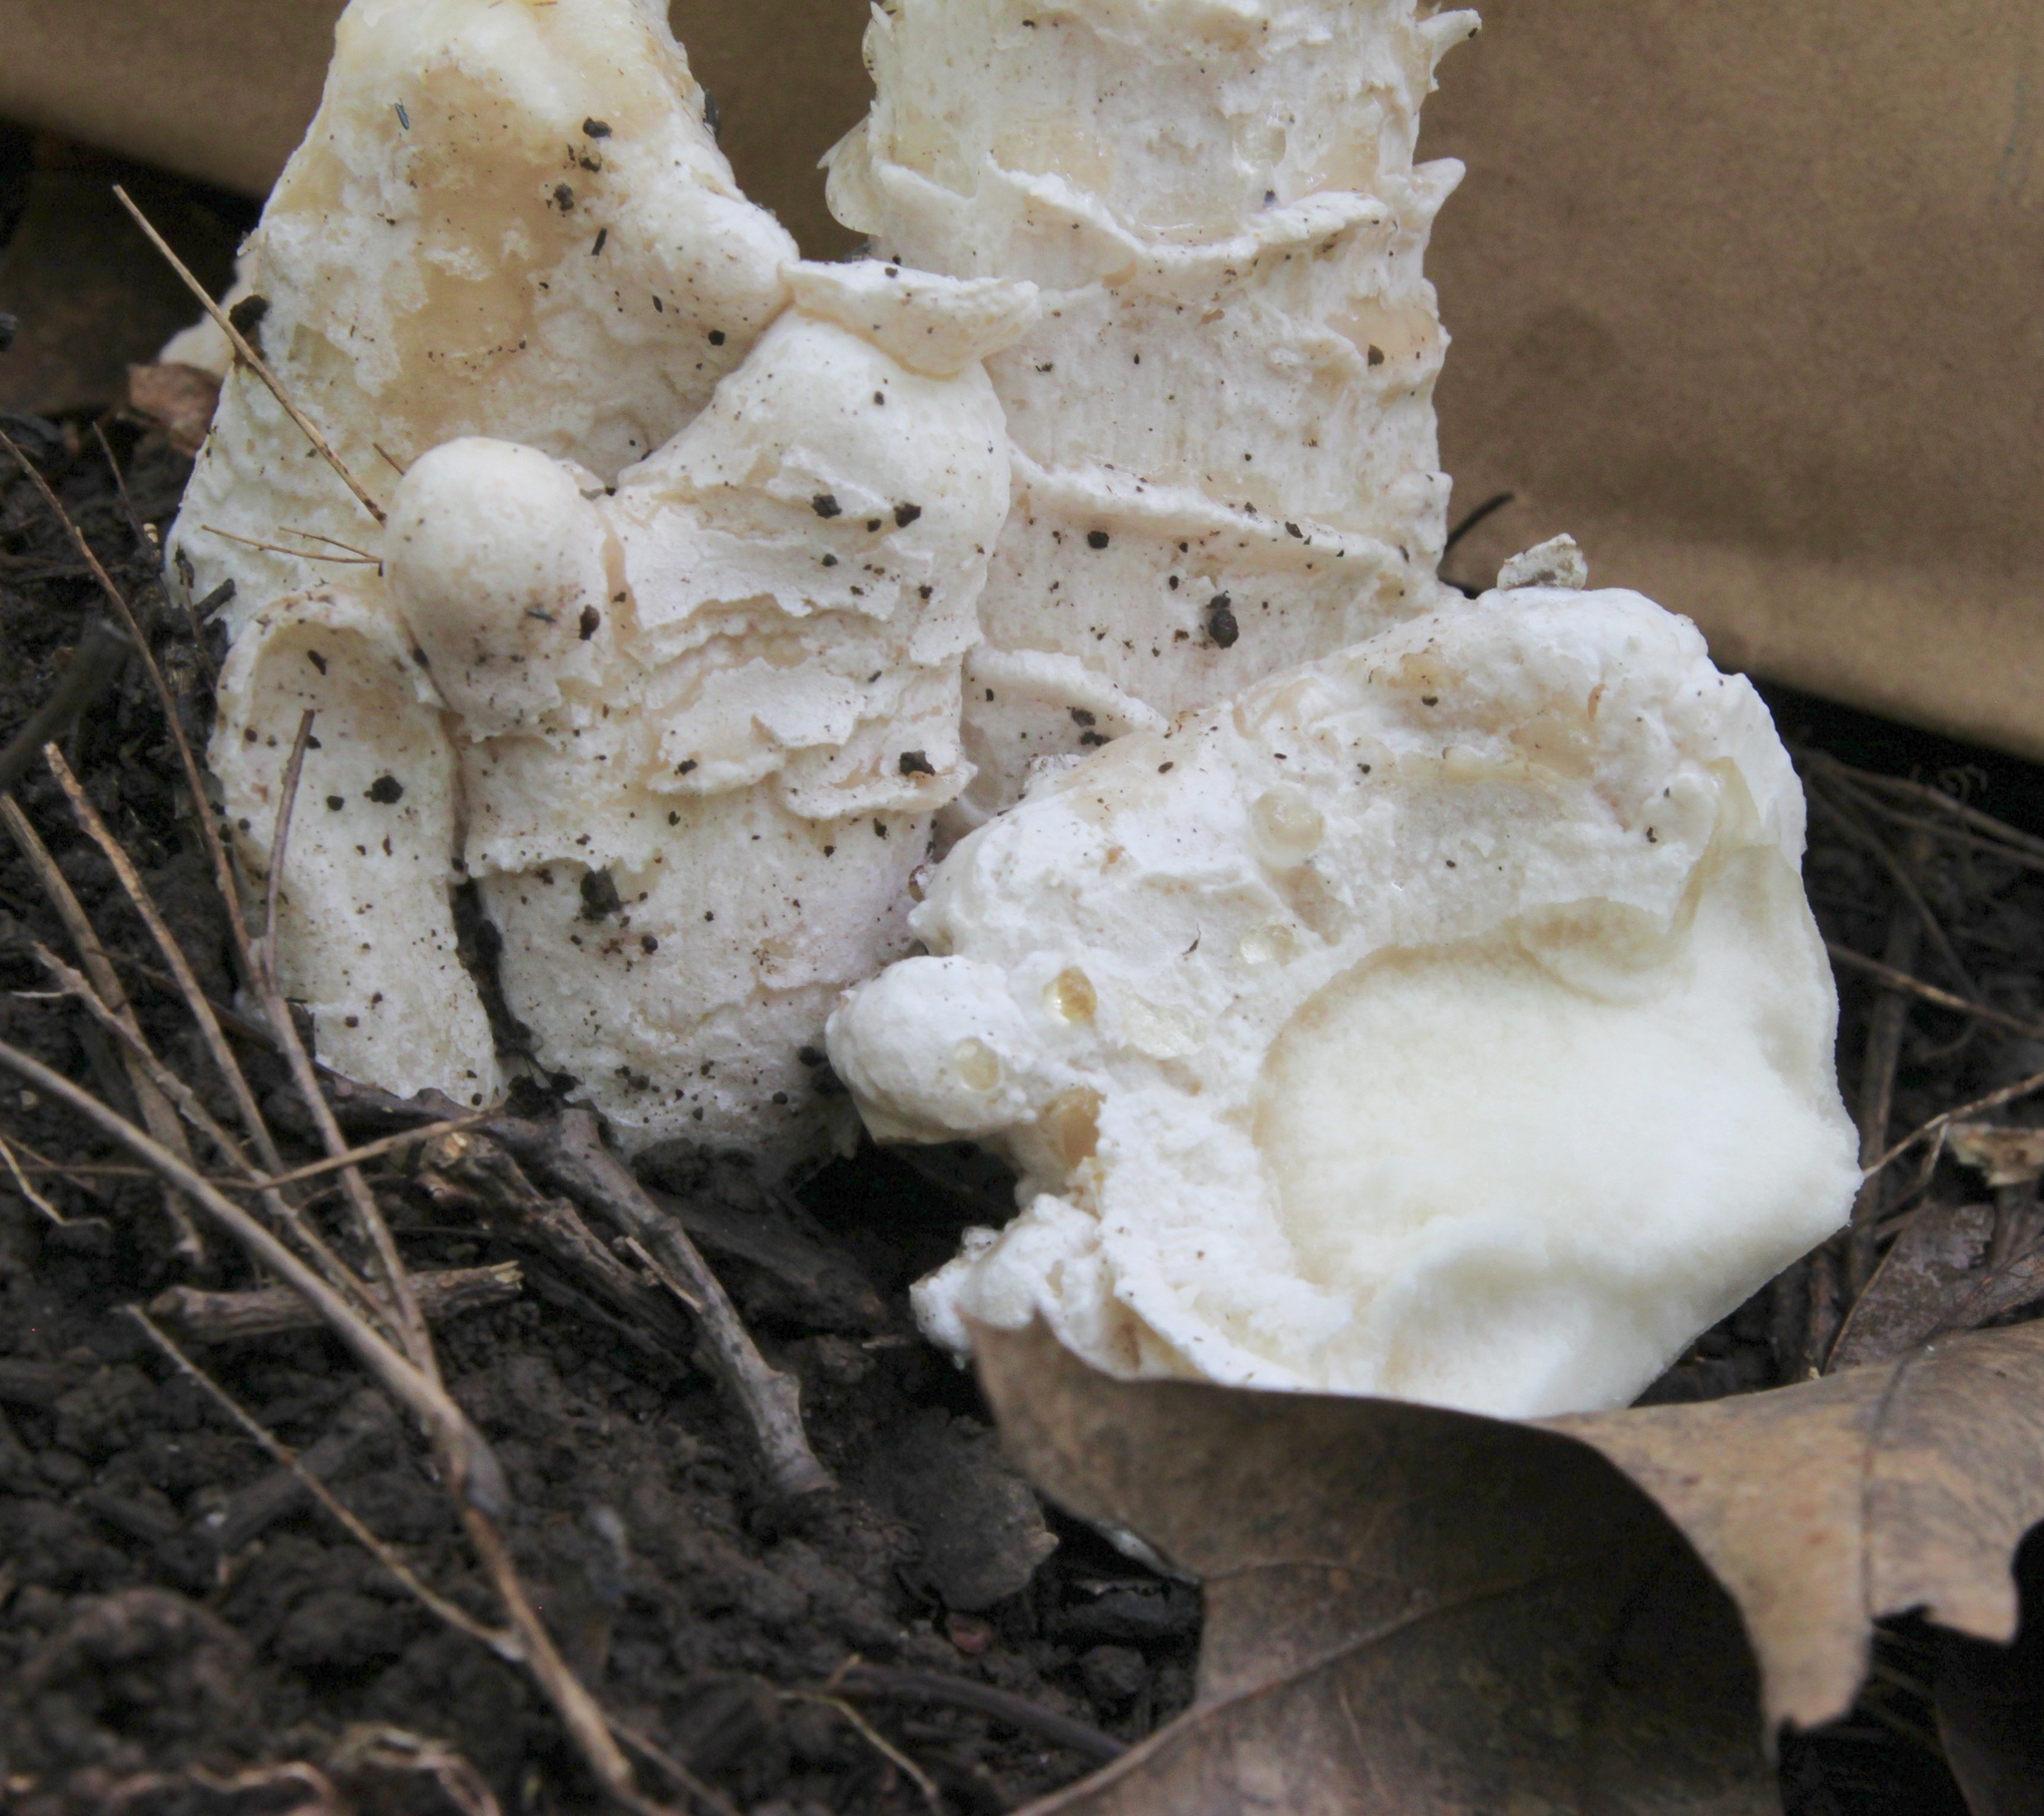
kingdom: Fungi
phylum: Ascomycota
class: Sordariomycetes
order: Hypocreales
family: Hypocreaceae
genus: Hypomyces
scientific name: Hypomyces hyalinus
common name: Amanita mold
